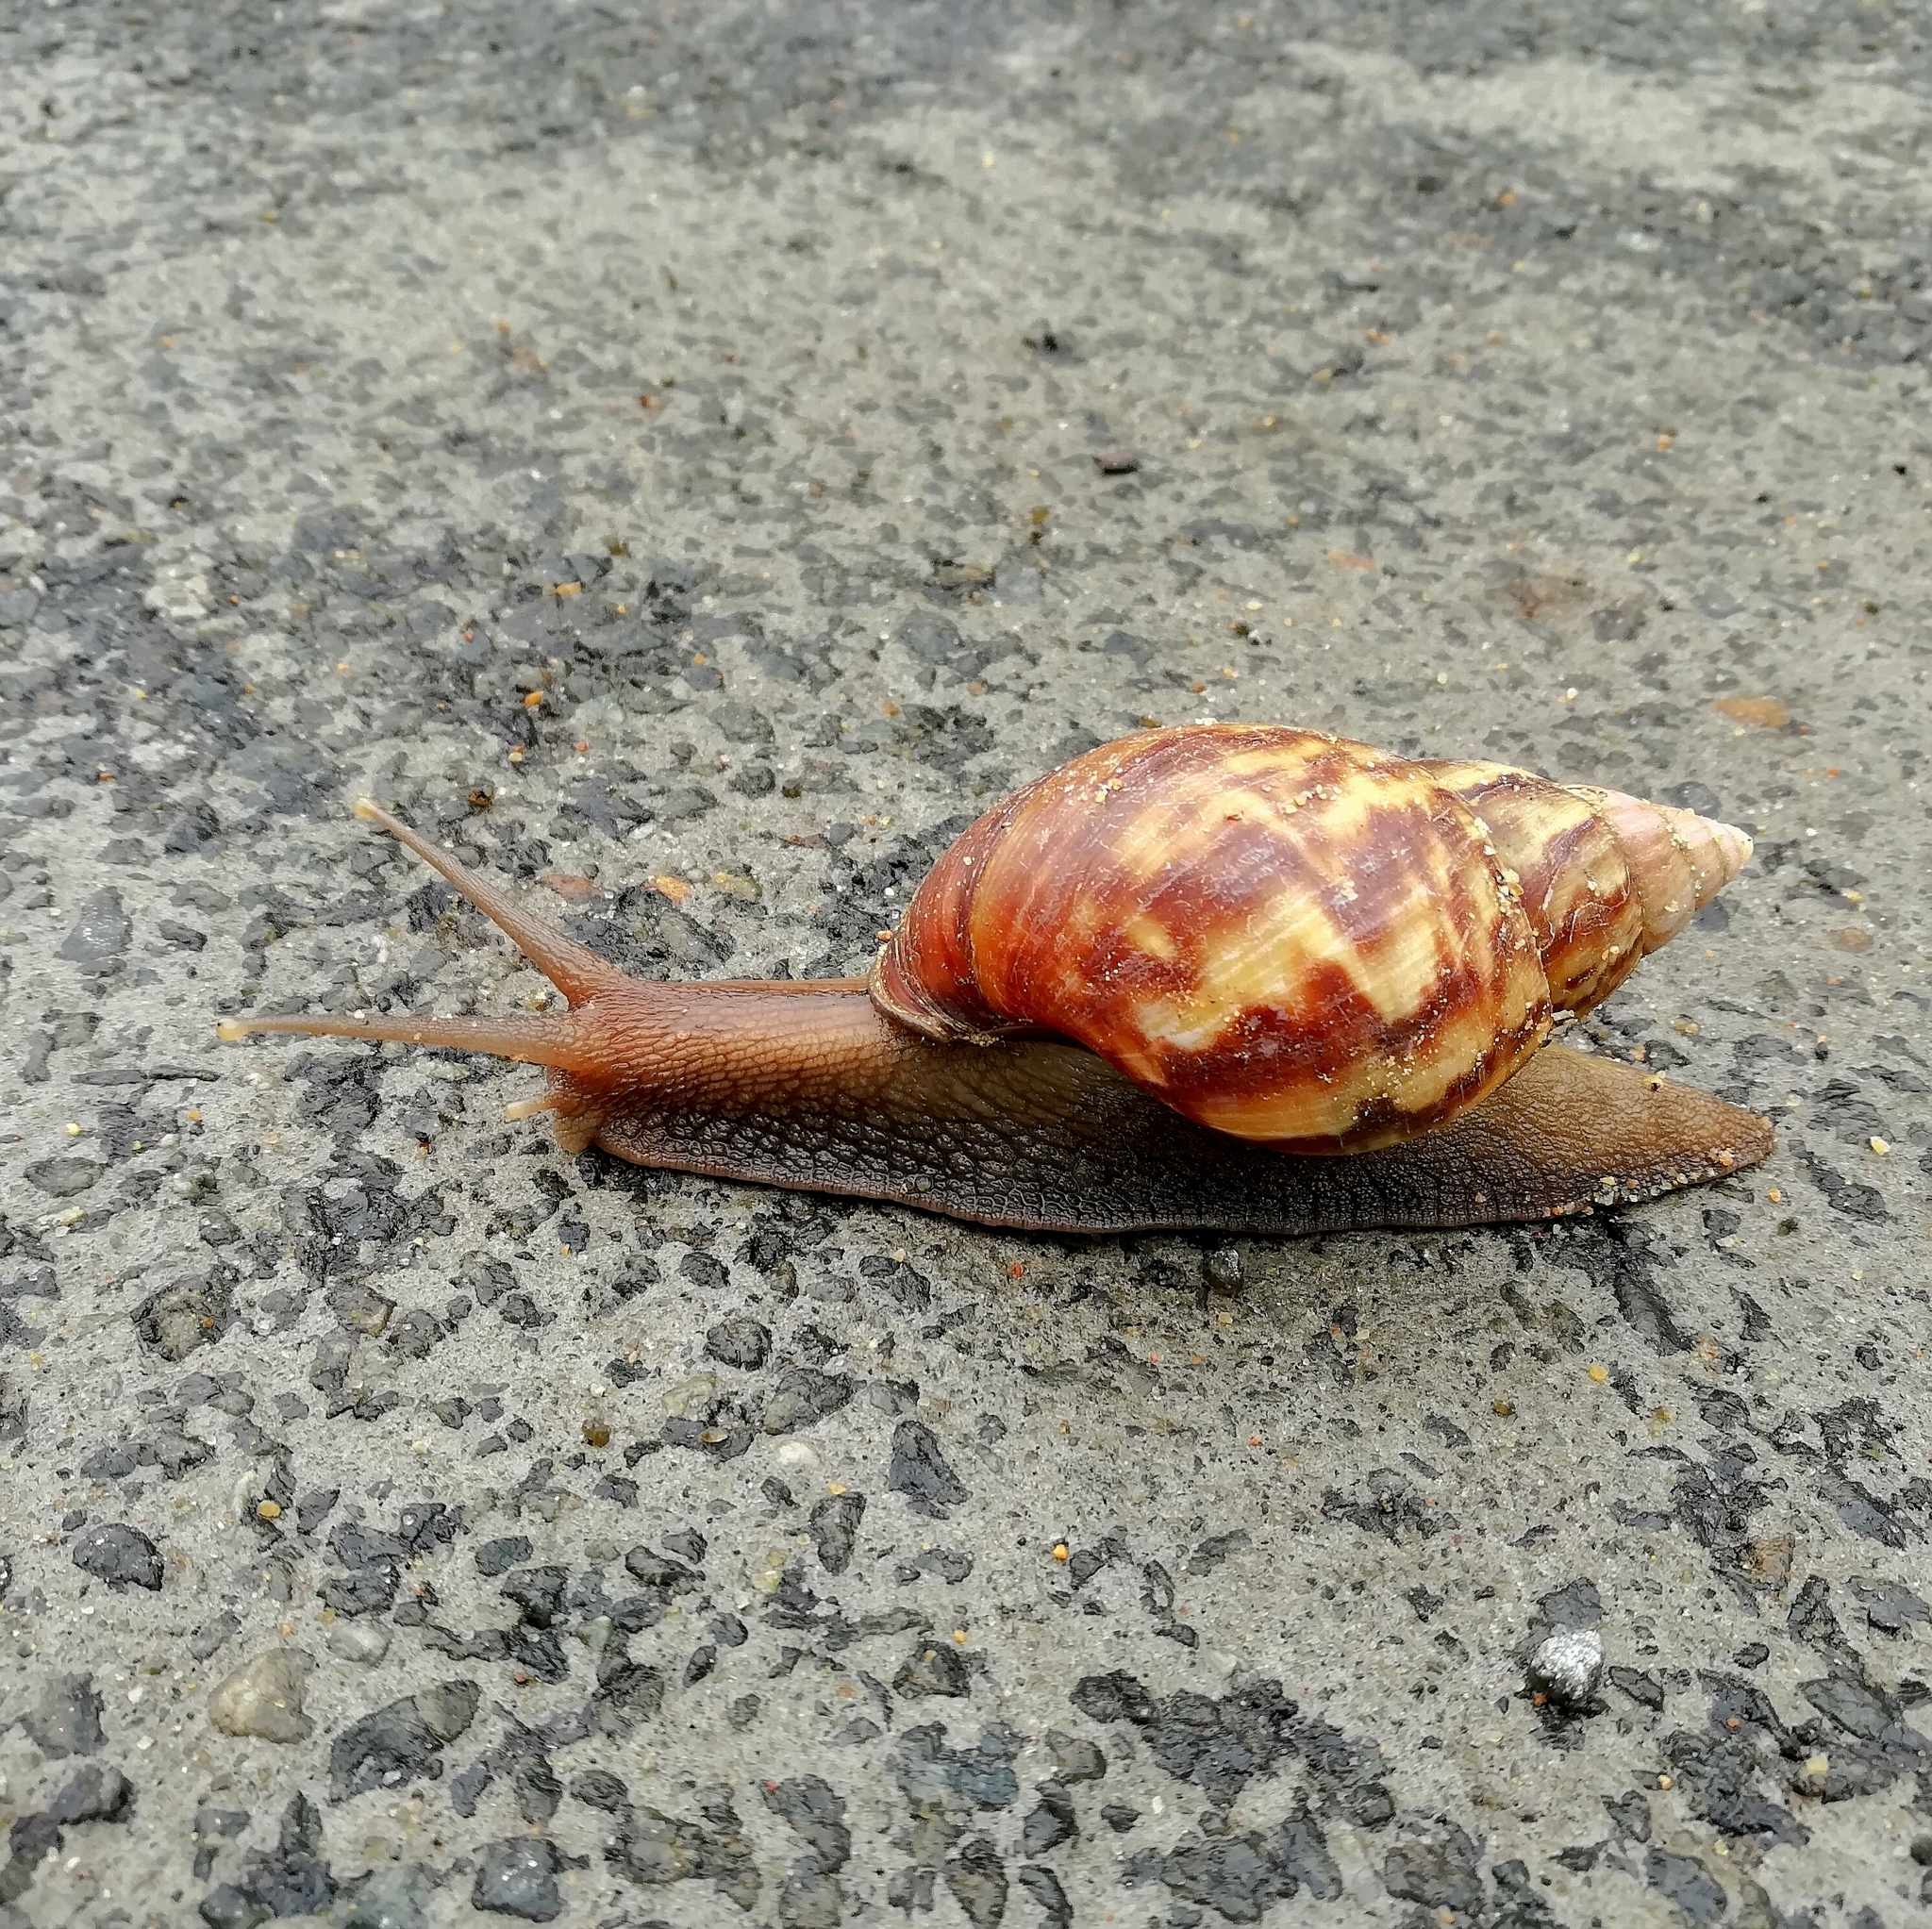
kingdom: Animalia
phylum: Mollusca
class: Gastropoda
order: Stylommatophora
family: Achatinidae
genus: Lissachatina
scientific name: Lissachatina fulica
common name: Giant african snail
